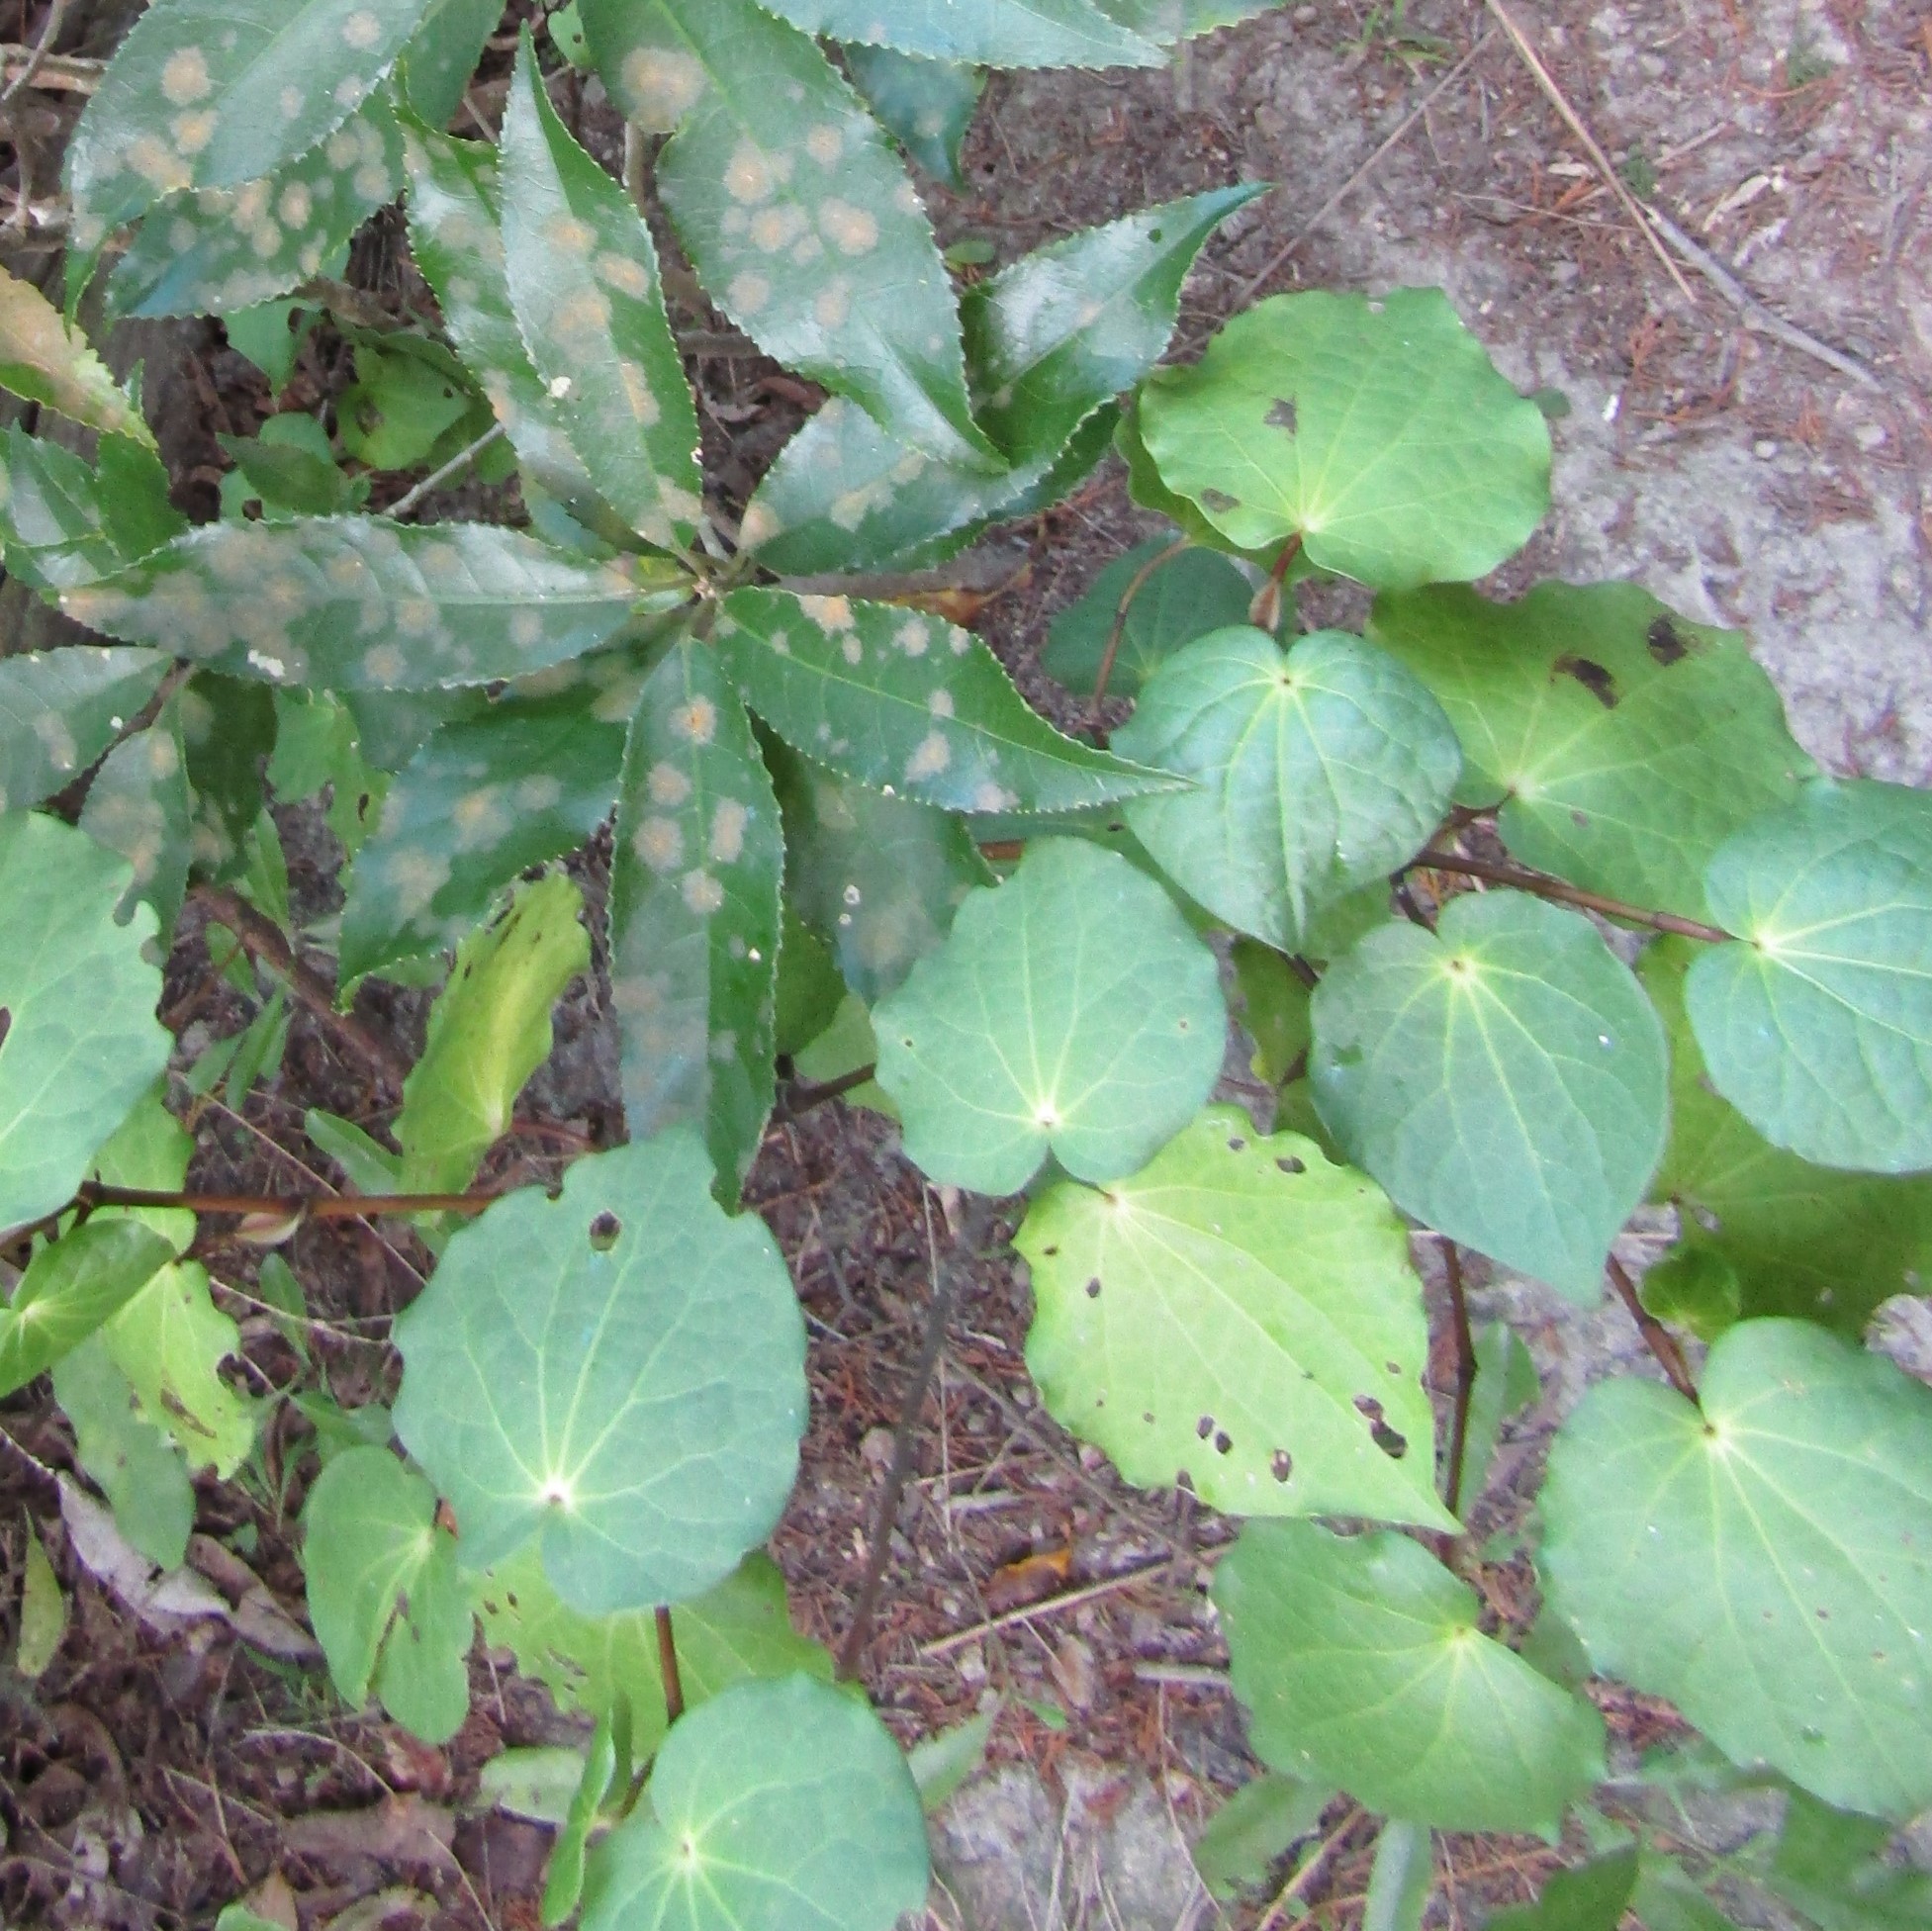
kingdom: Plantae
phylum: Tracheophyta
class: Magnoliopsida
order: Piperales
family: Piperaceae
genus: Macropiper
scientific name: Macropiper excelsum
